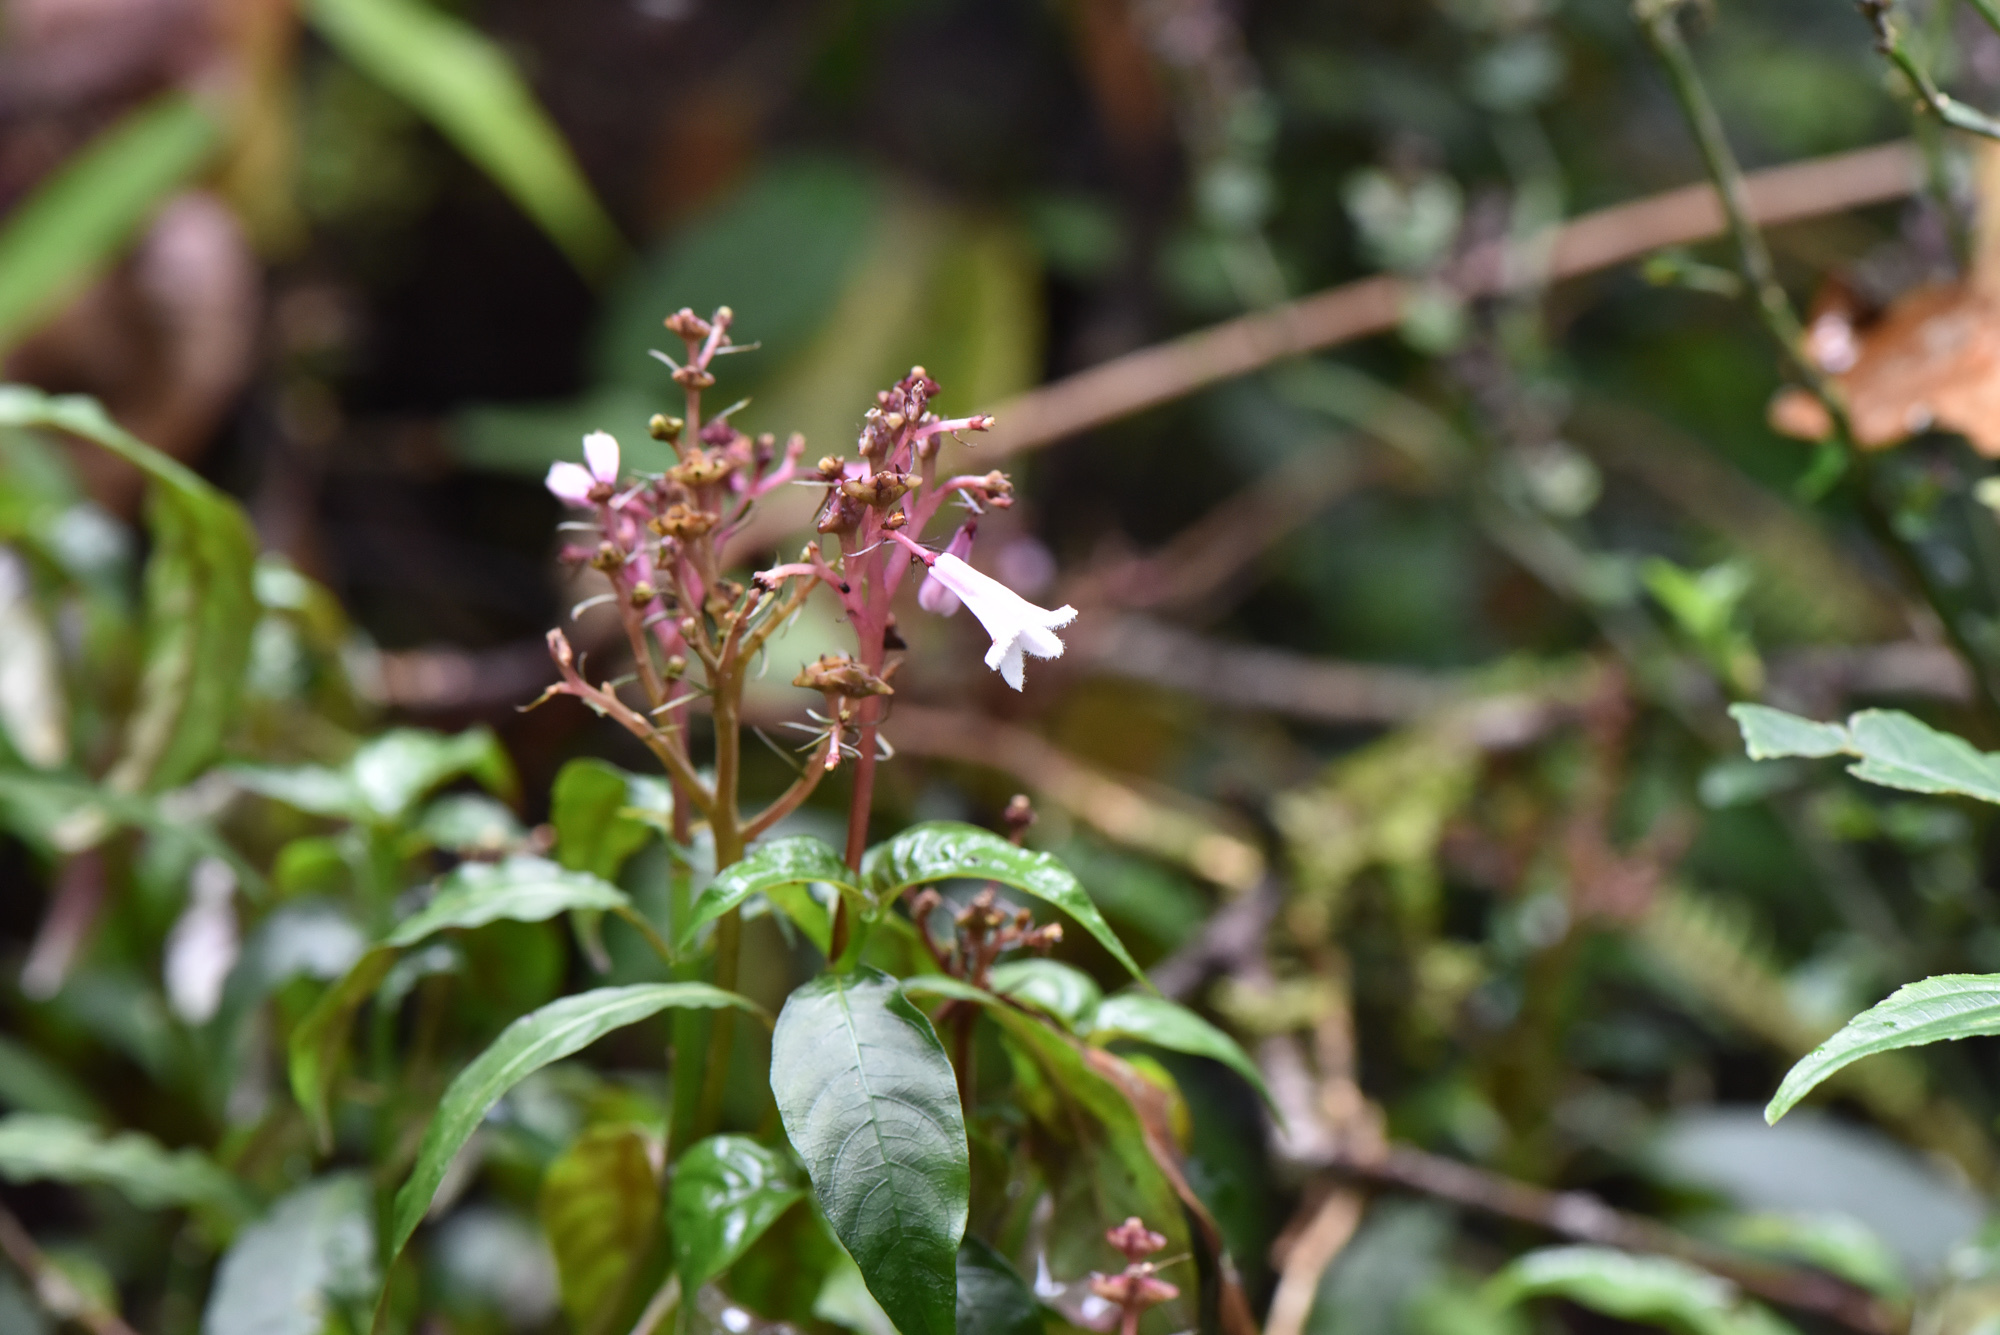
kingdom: Plantae
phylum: Tracheophyta
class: Magnoliopsida
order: Gentianales
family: Rubiaceae
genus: Ophiorrhiza
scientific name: Ophiorrhiza japonica
